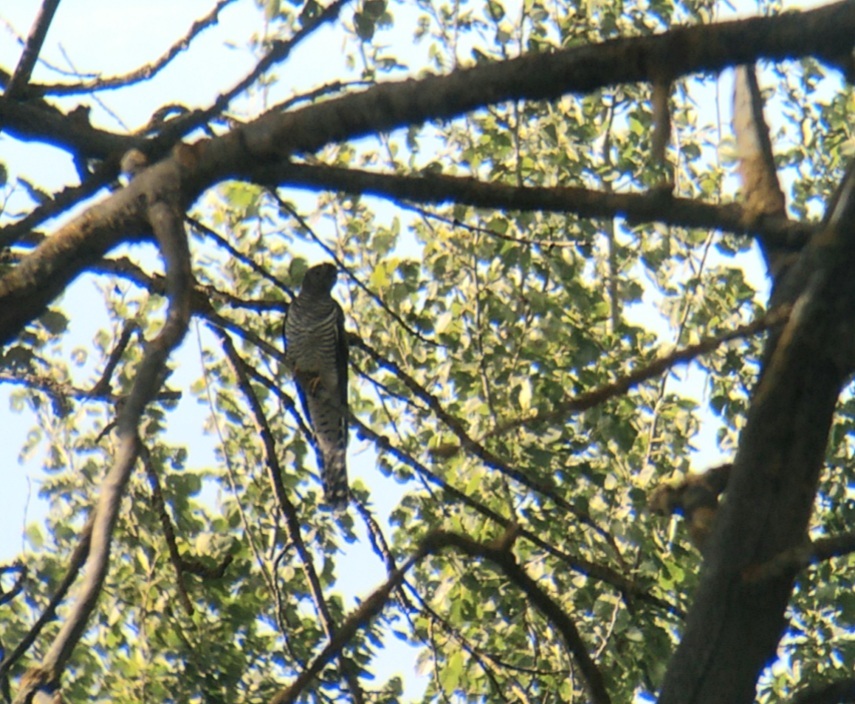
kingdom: Animalia
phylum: Chordata
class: Aves
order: Cuculiformes
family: Cuculidae
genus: Cuculus
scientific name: Cuculus canorus
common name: Common cuckoo
